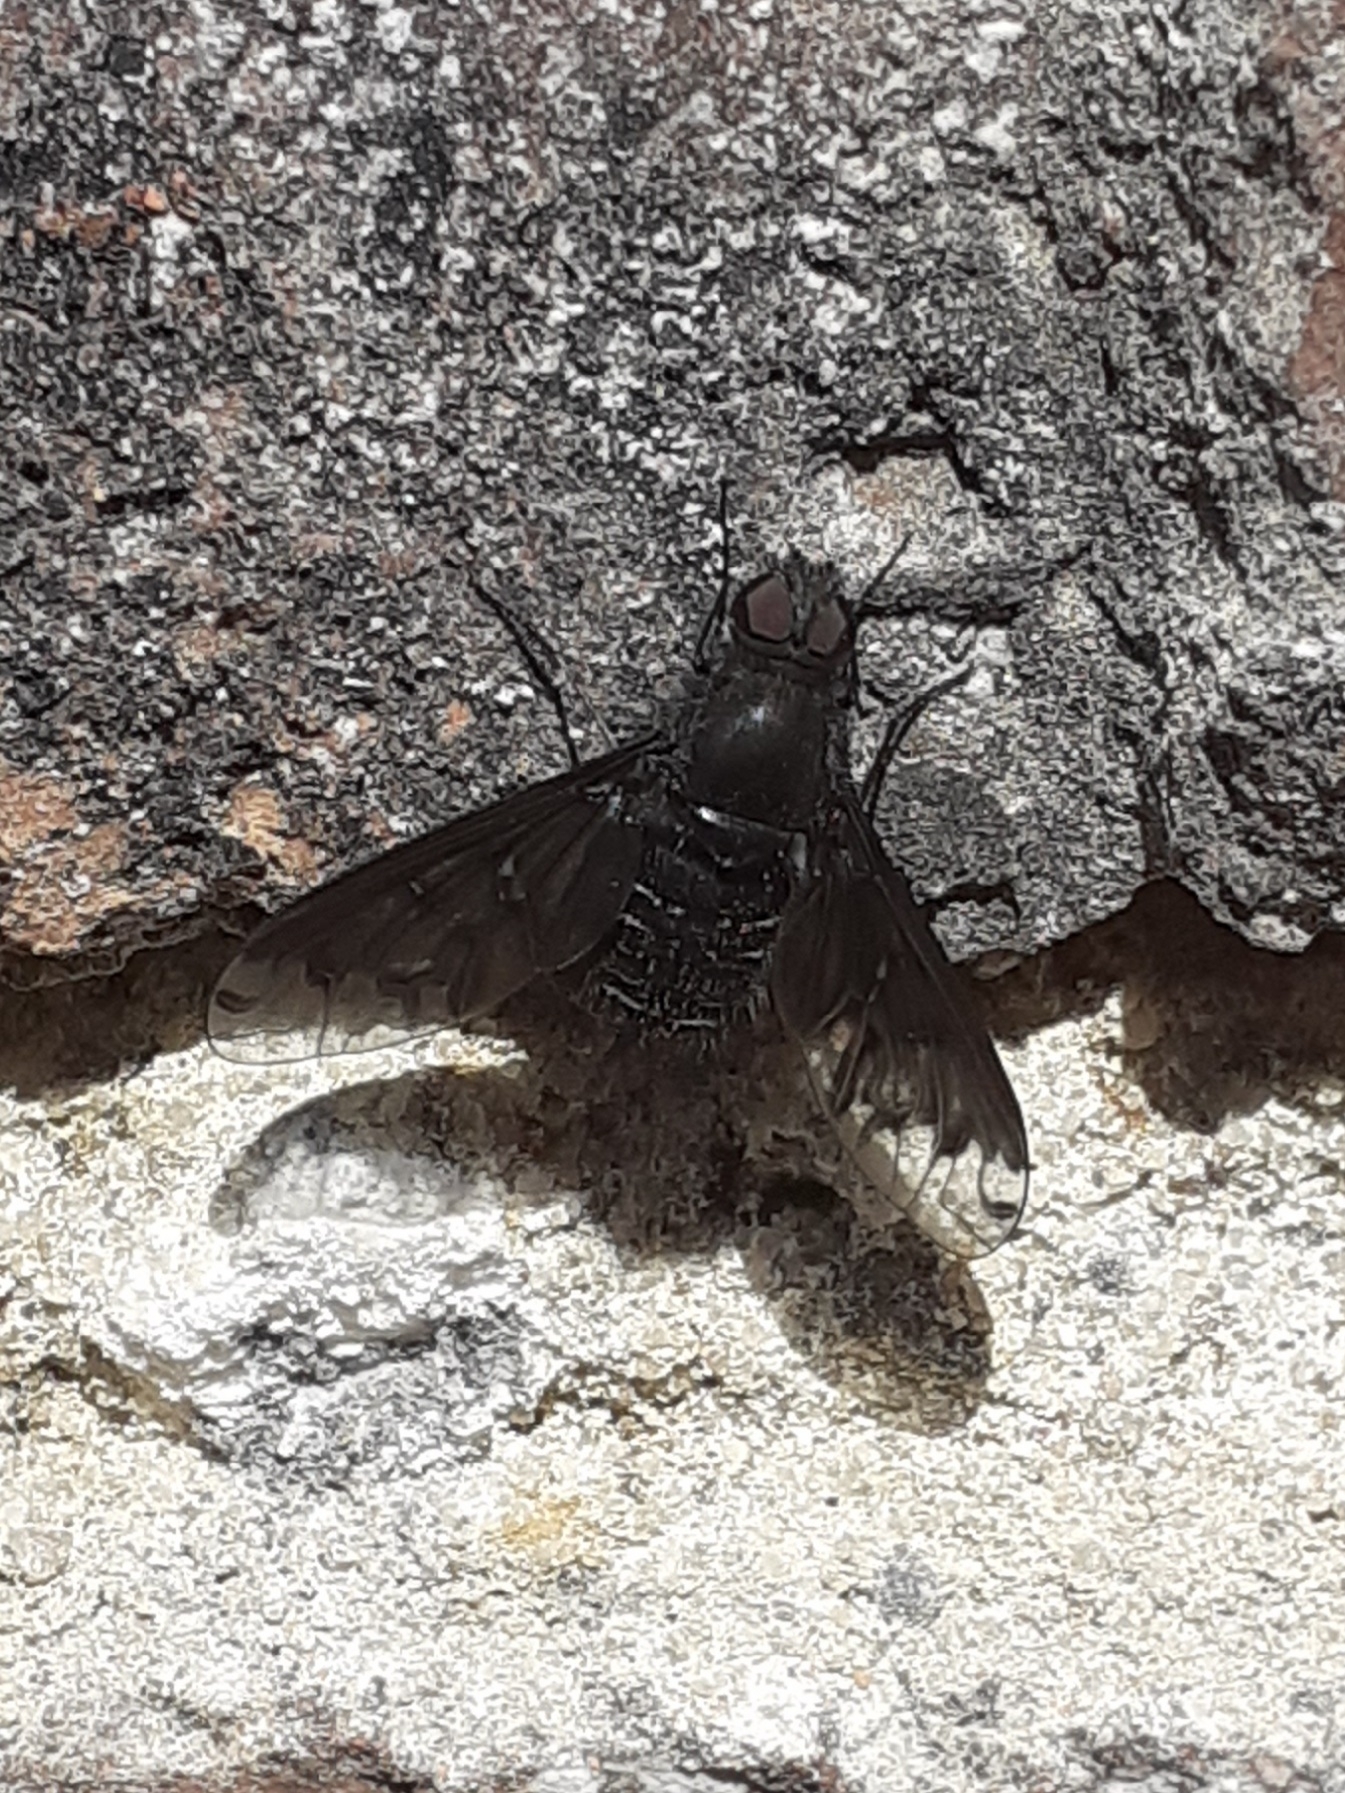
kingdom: Animalia
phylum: Arthropoda
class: Insecta
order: Diptera
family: Bombyliidae
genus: Anthrax
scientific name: Anthrax anthrax
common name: Anthracite bee-fly
